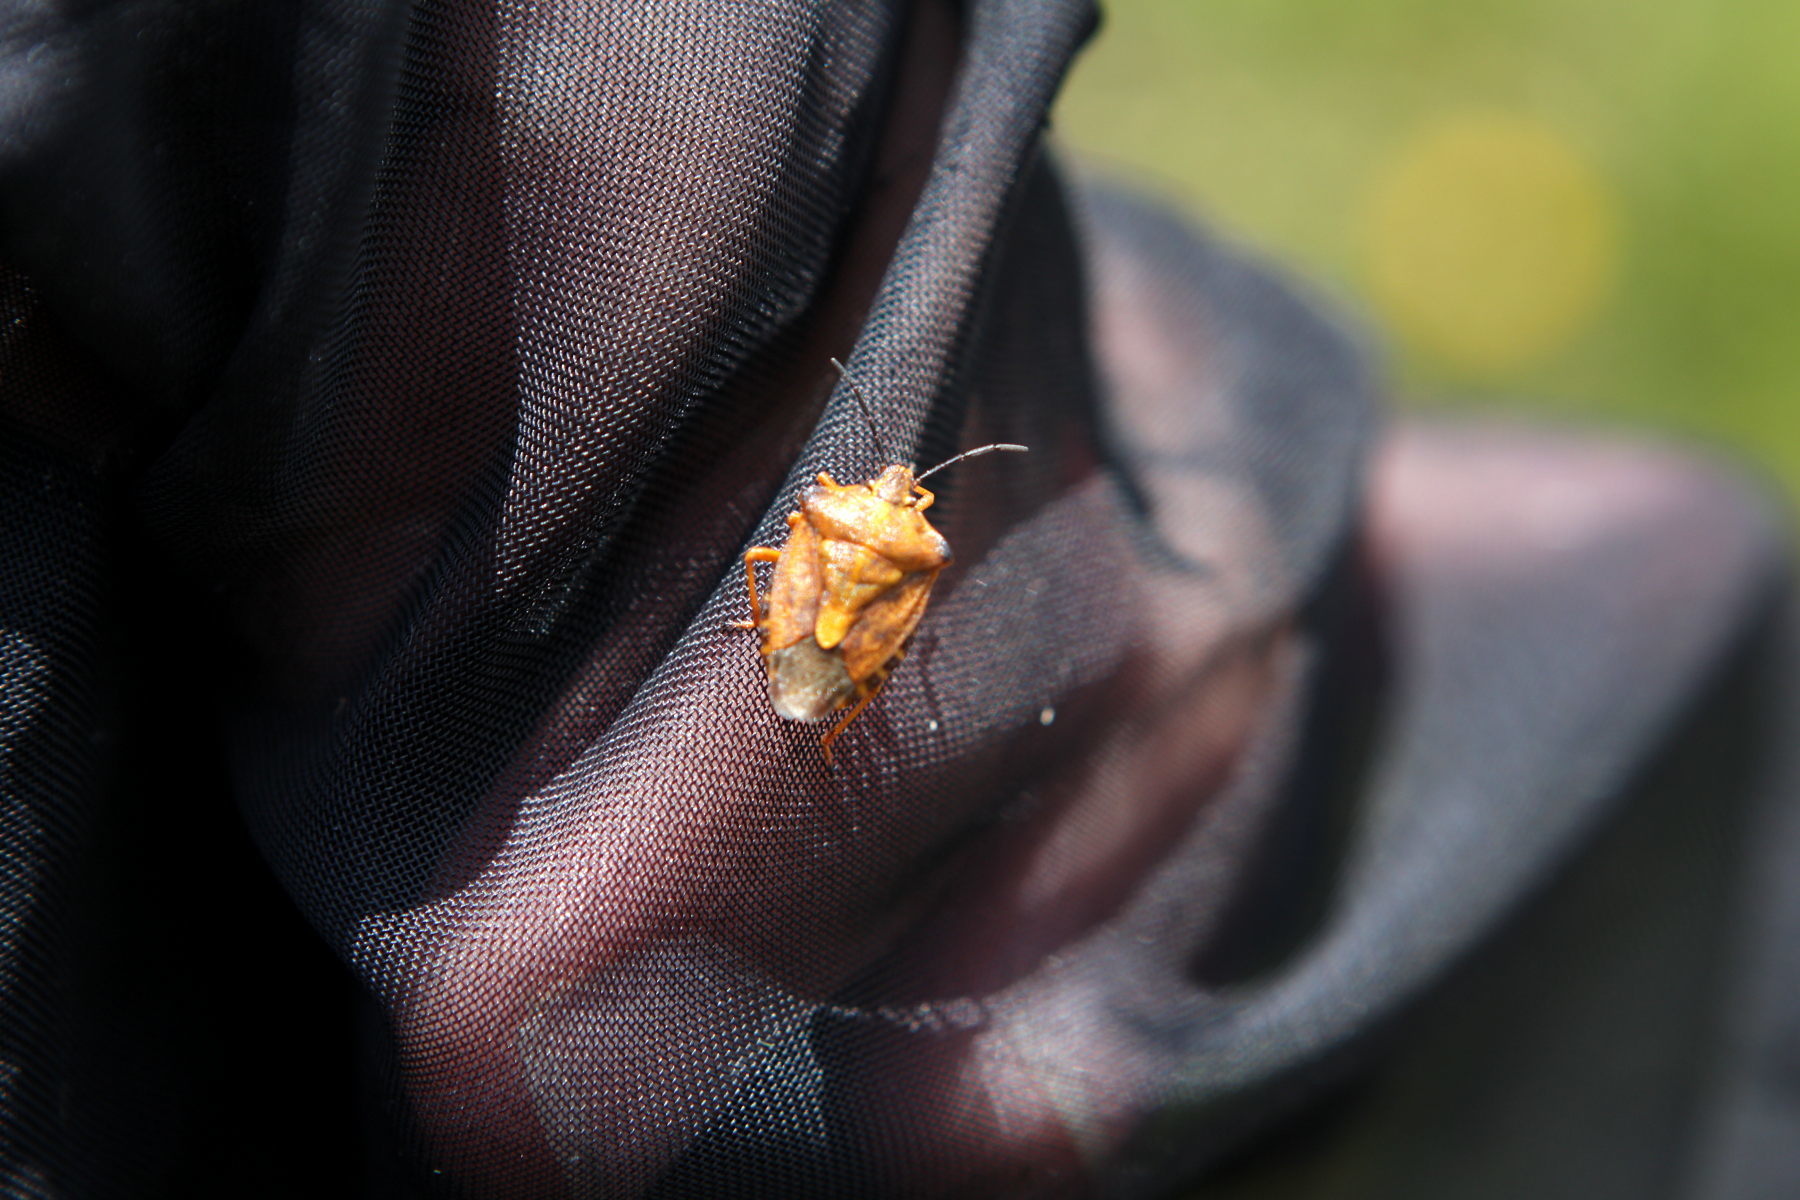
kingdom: Animalia
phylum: Arthropoda
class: Insecta
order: Hemiptera
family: Pentatomidae
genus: Carpocoris
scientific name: Carpocoris purpureipennis
